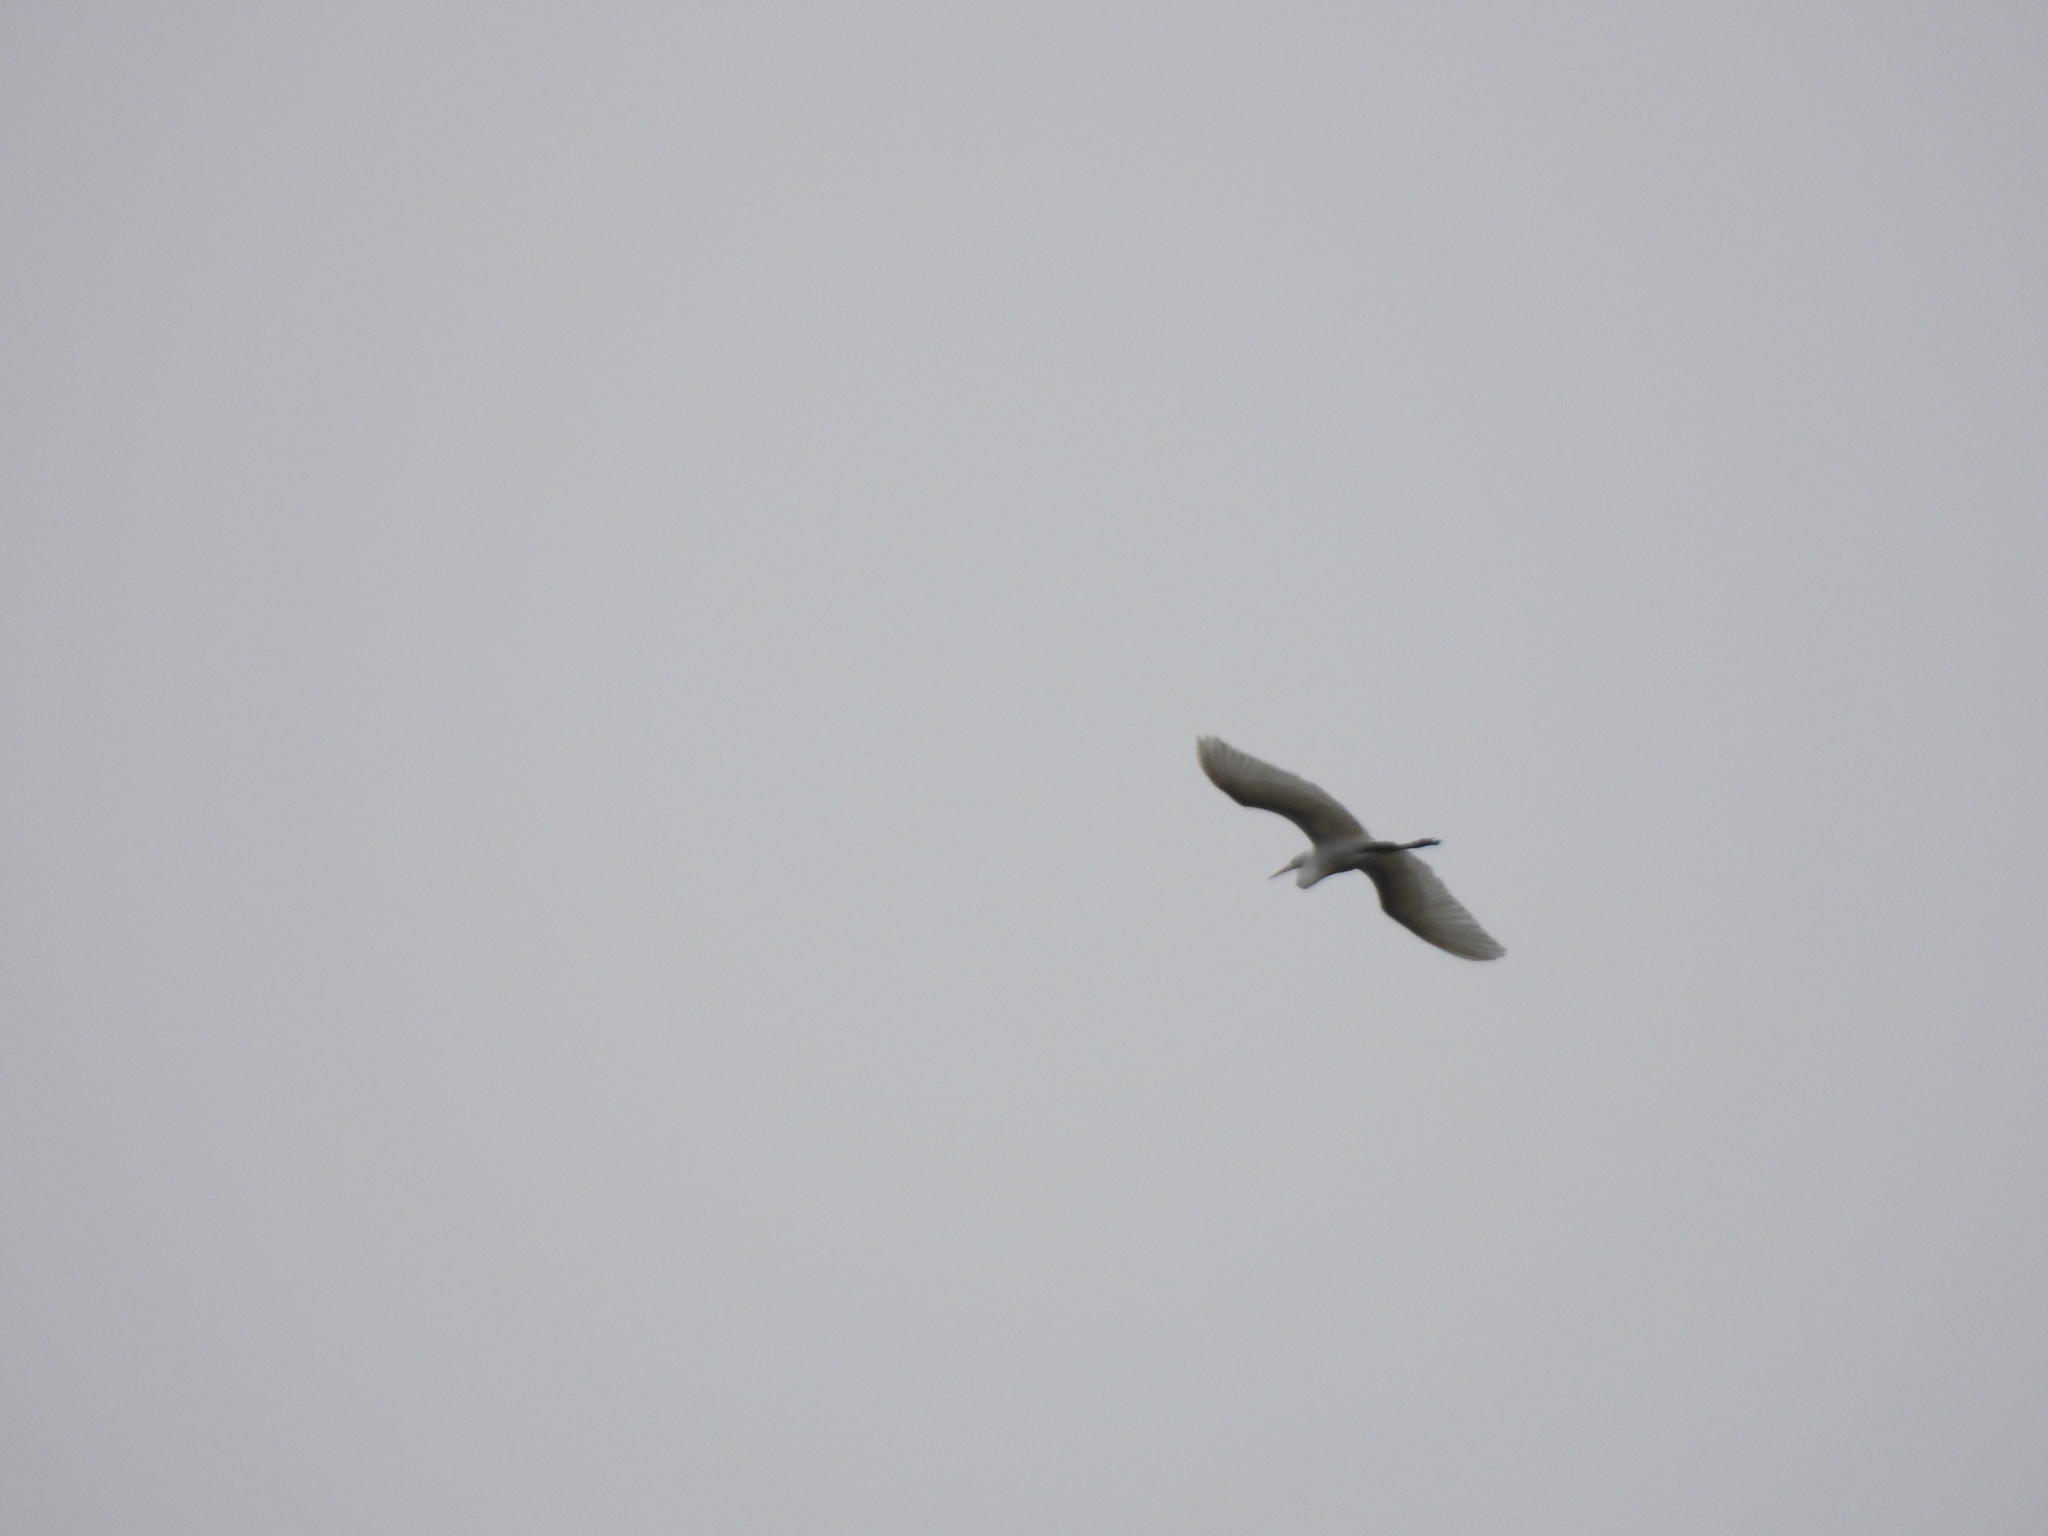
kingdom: Animalia
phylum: Chordata
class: Aves
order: Pelecaniformes
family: Ardeidae
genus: Ardea
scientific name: Ardea alba
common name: Great egret
